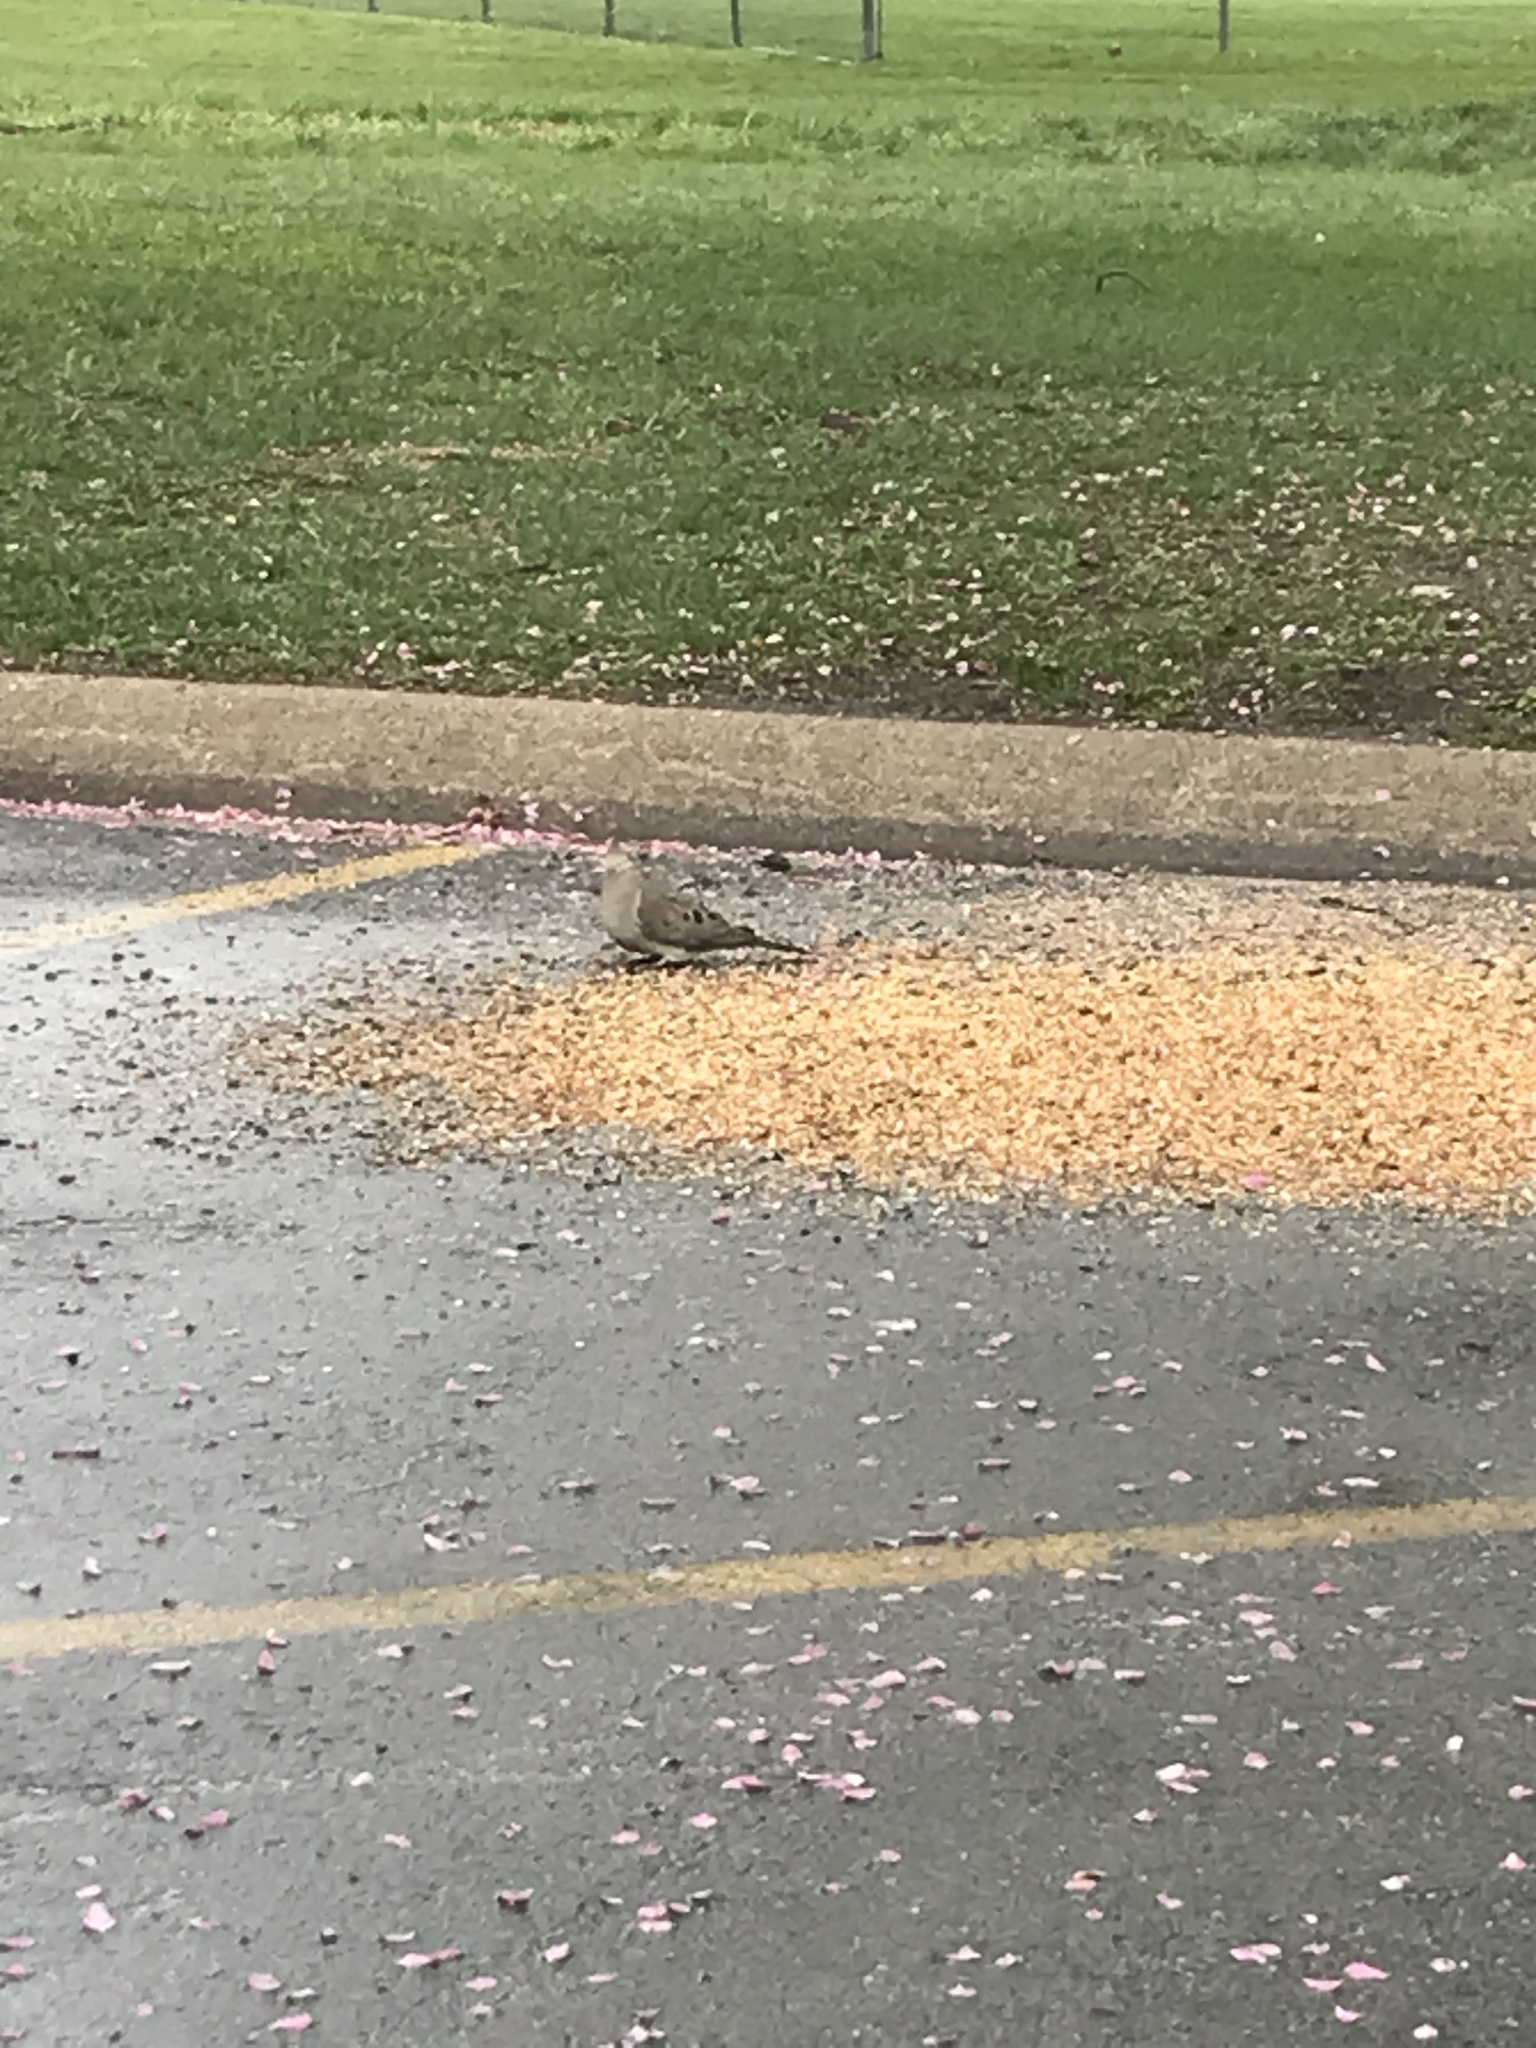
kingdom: Animalia
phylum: Chordata
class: Aves
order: Columbiformes
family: Columbidae
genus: Zenaida
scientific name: Zenaida macroura
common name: Mourning dove
